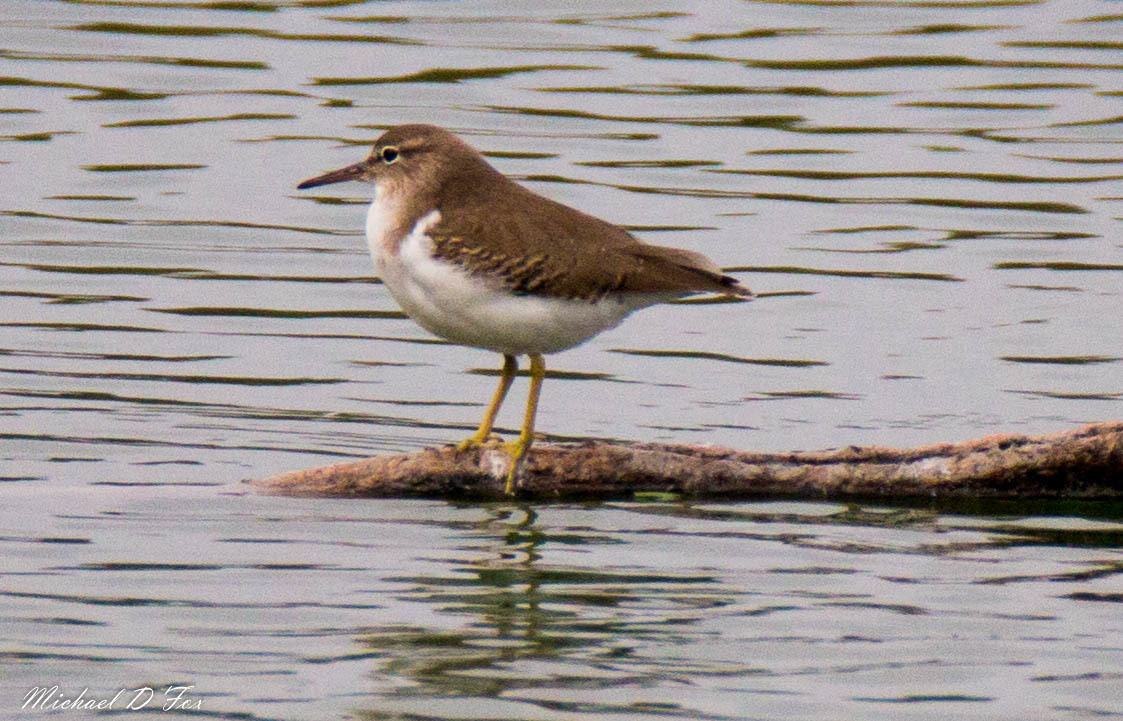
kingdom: Animalia
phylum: Chordata
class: Aves
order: Charadriiformes
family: Scolopacidae
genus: Actitis
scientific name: Actitis macularius
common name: Spotted sandpiper
